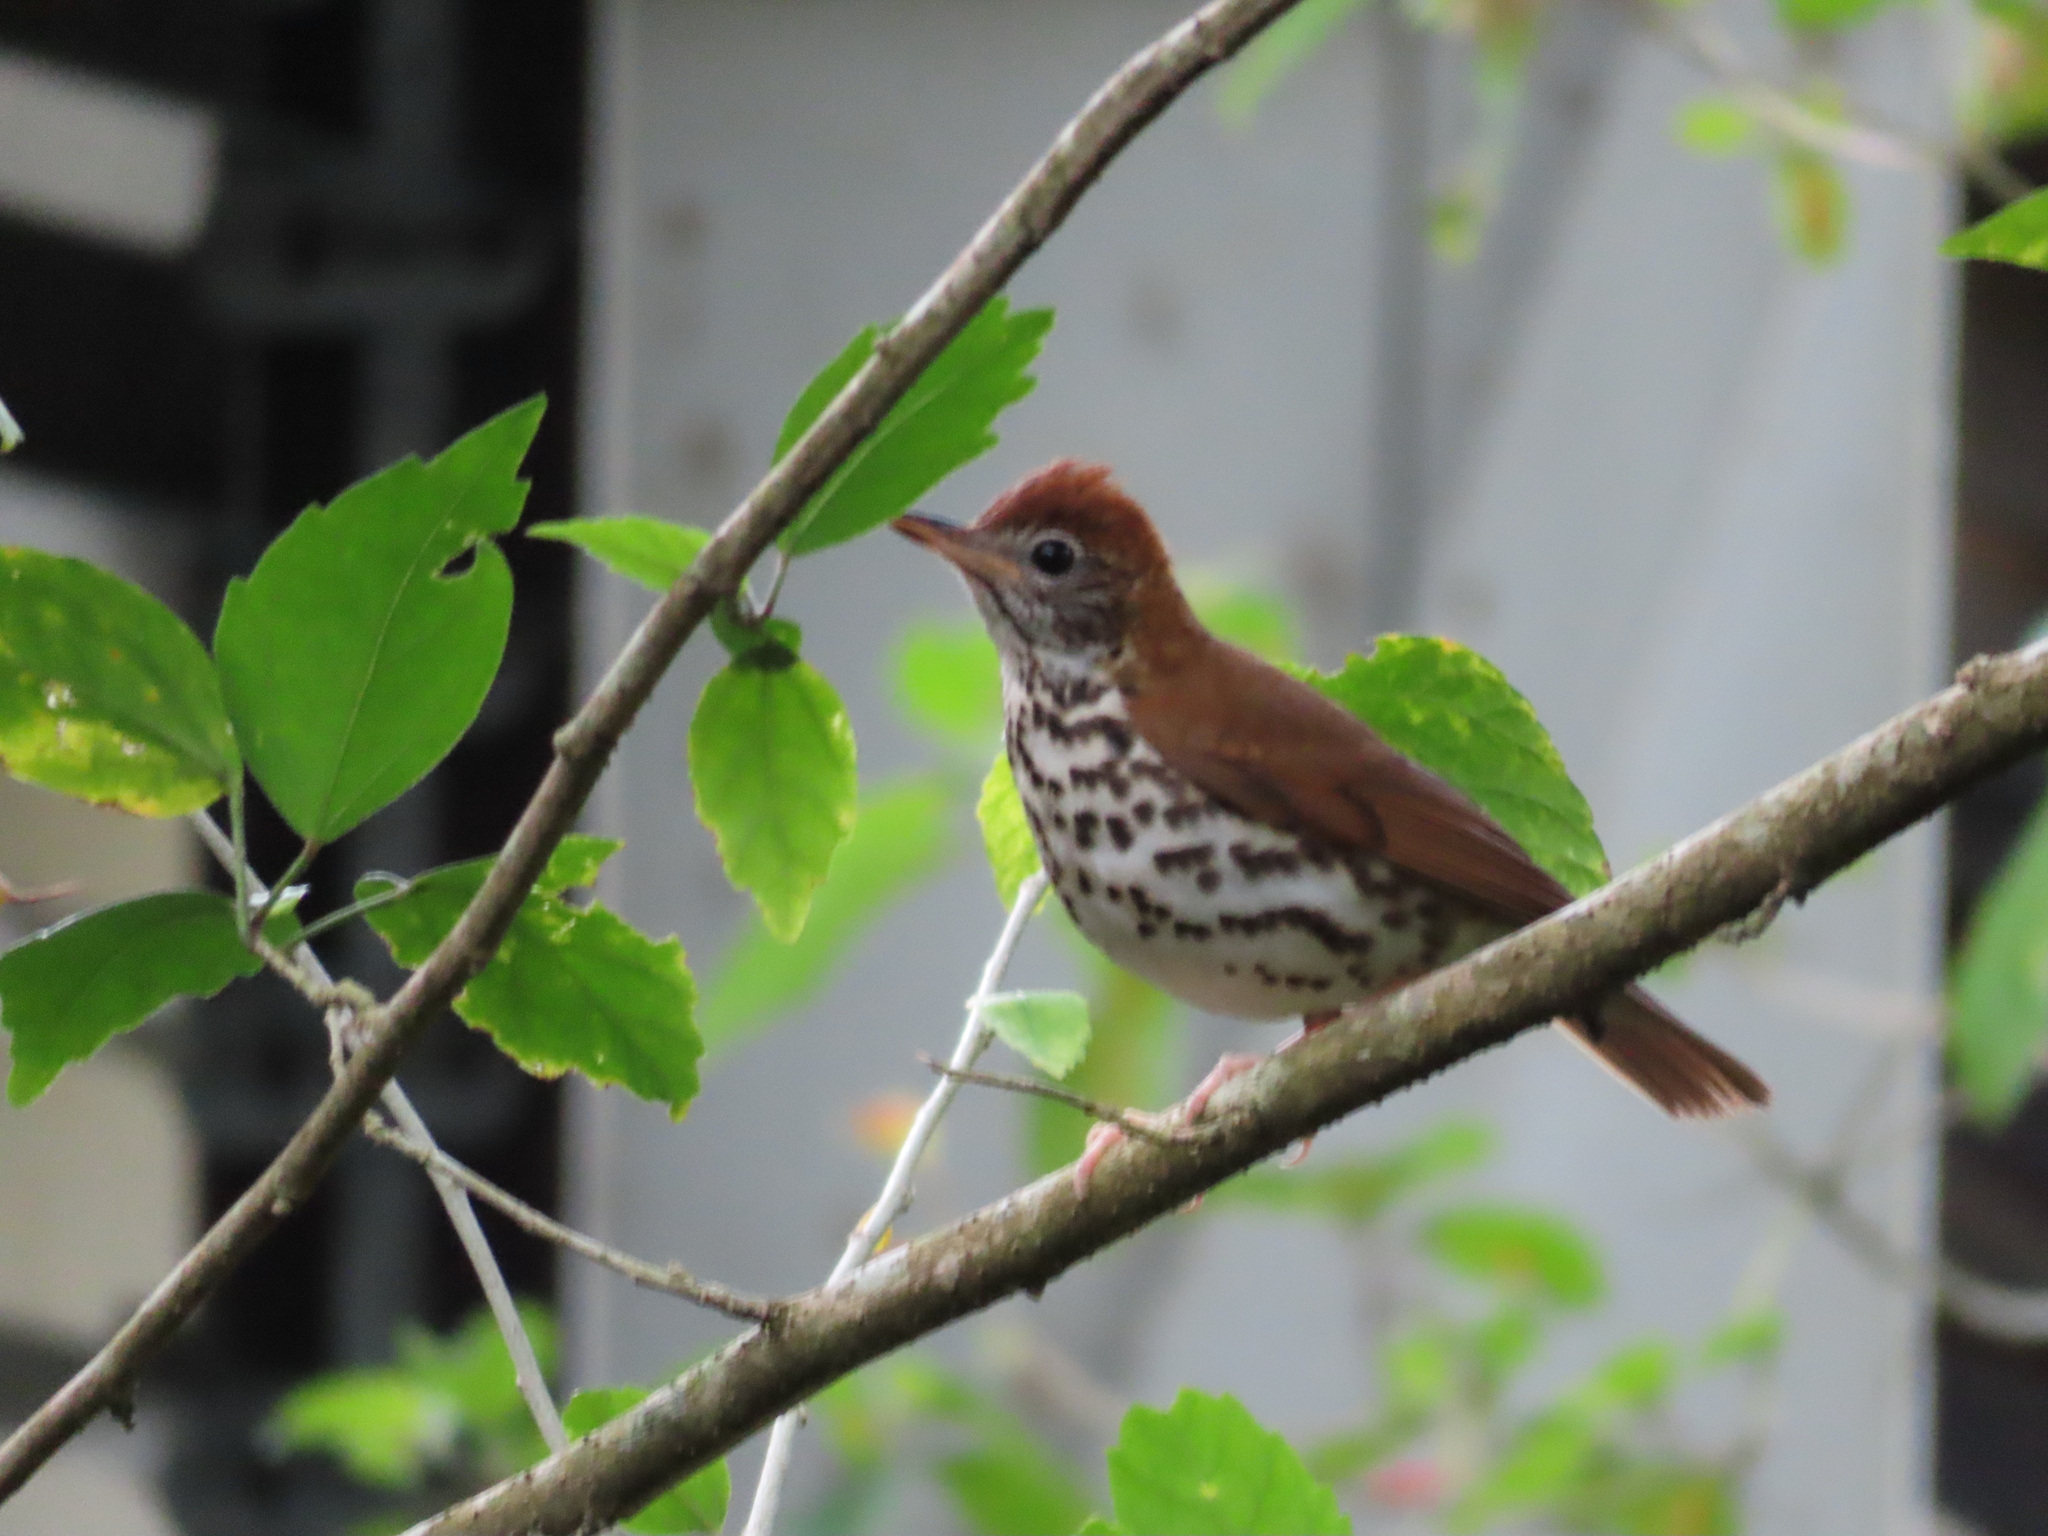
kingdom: Animalia
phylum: Chordata
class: Aves
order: Passeriformes
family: Turdidae
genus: Hylocichla
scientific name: Hylocichla mustelina
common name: Wood thrush
